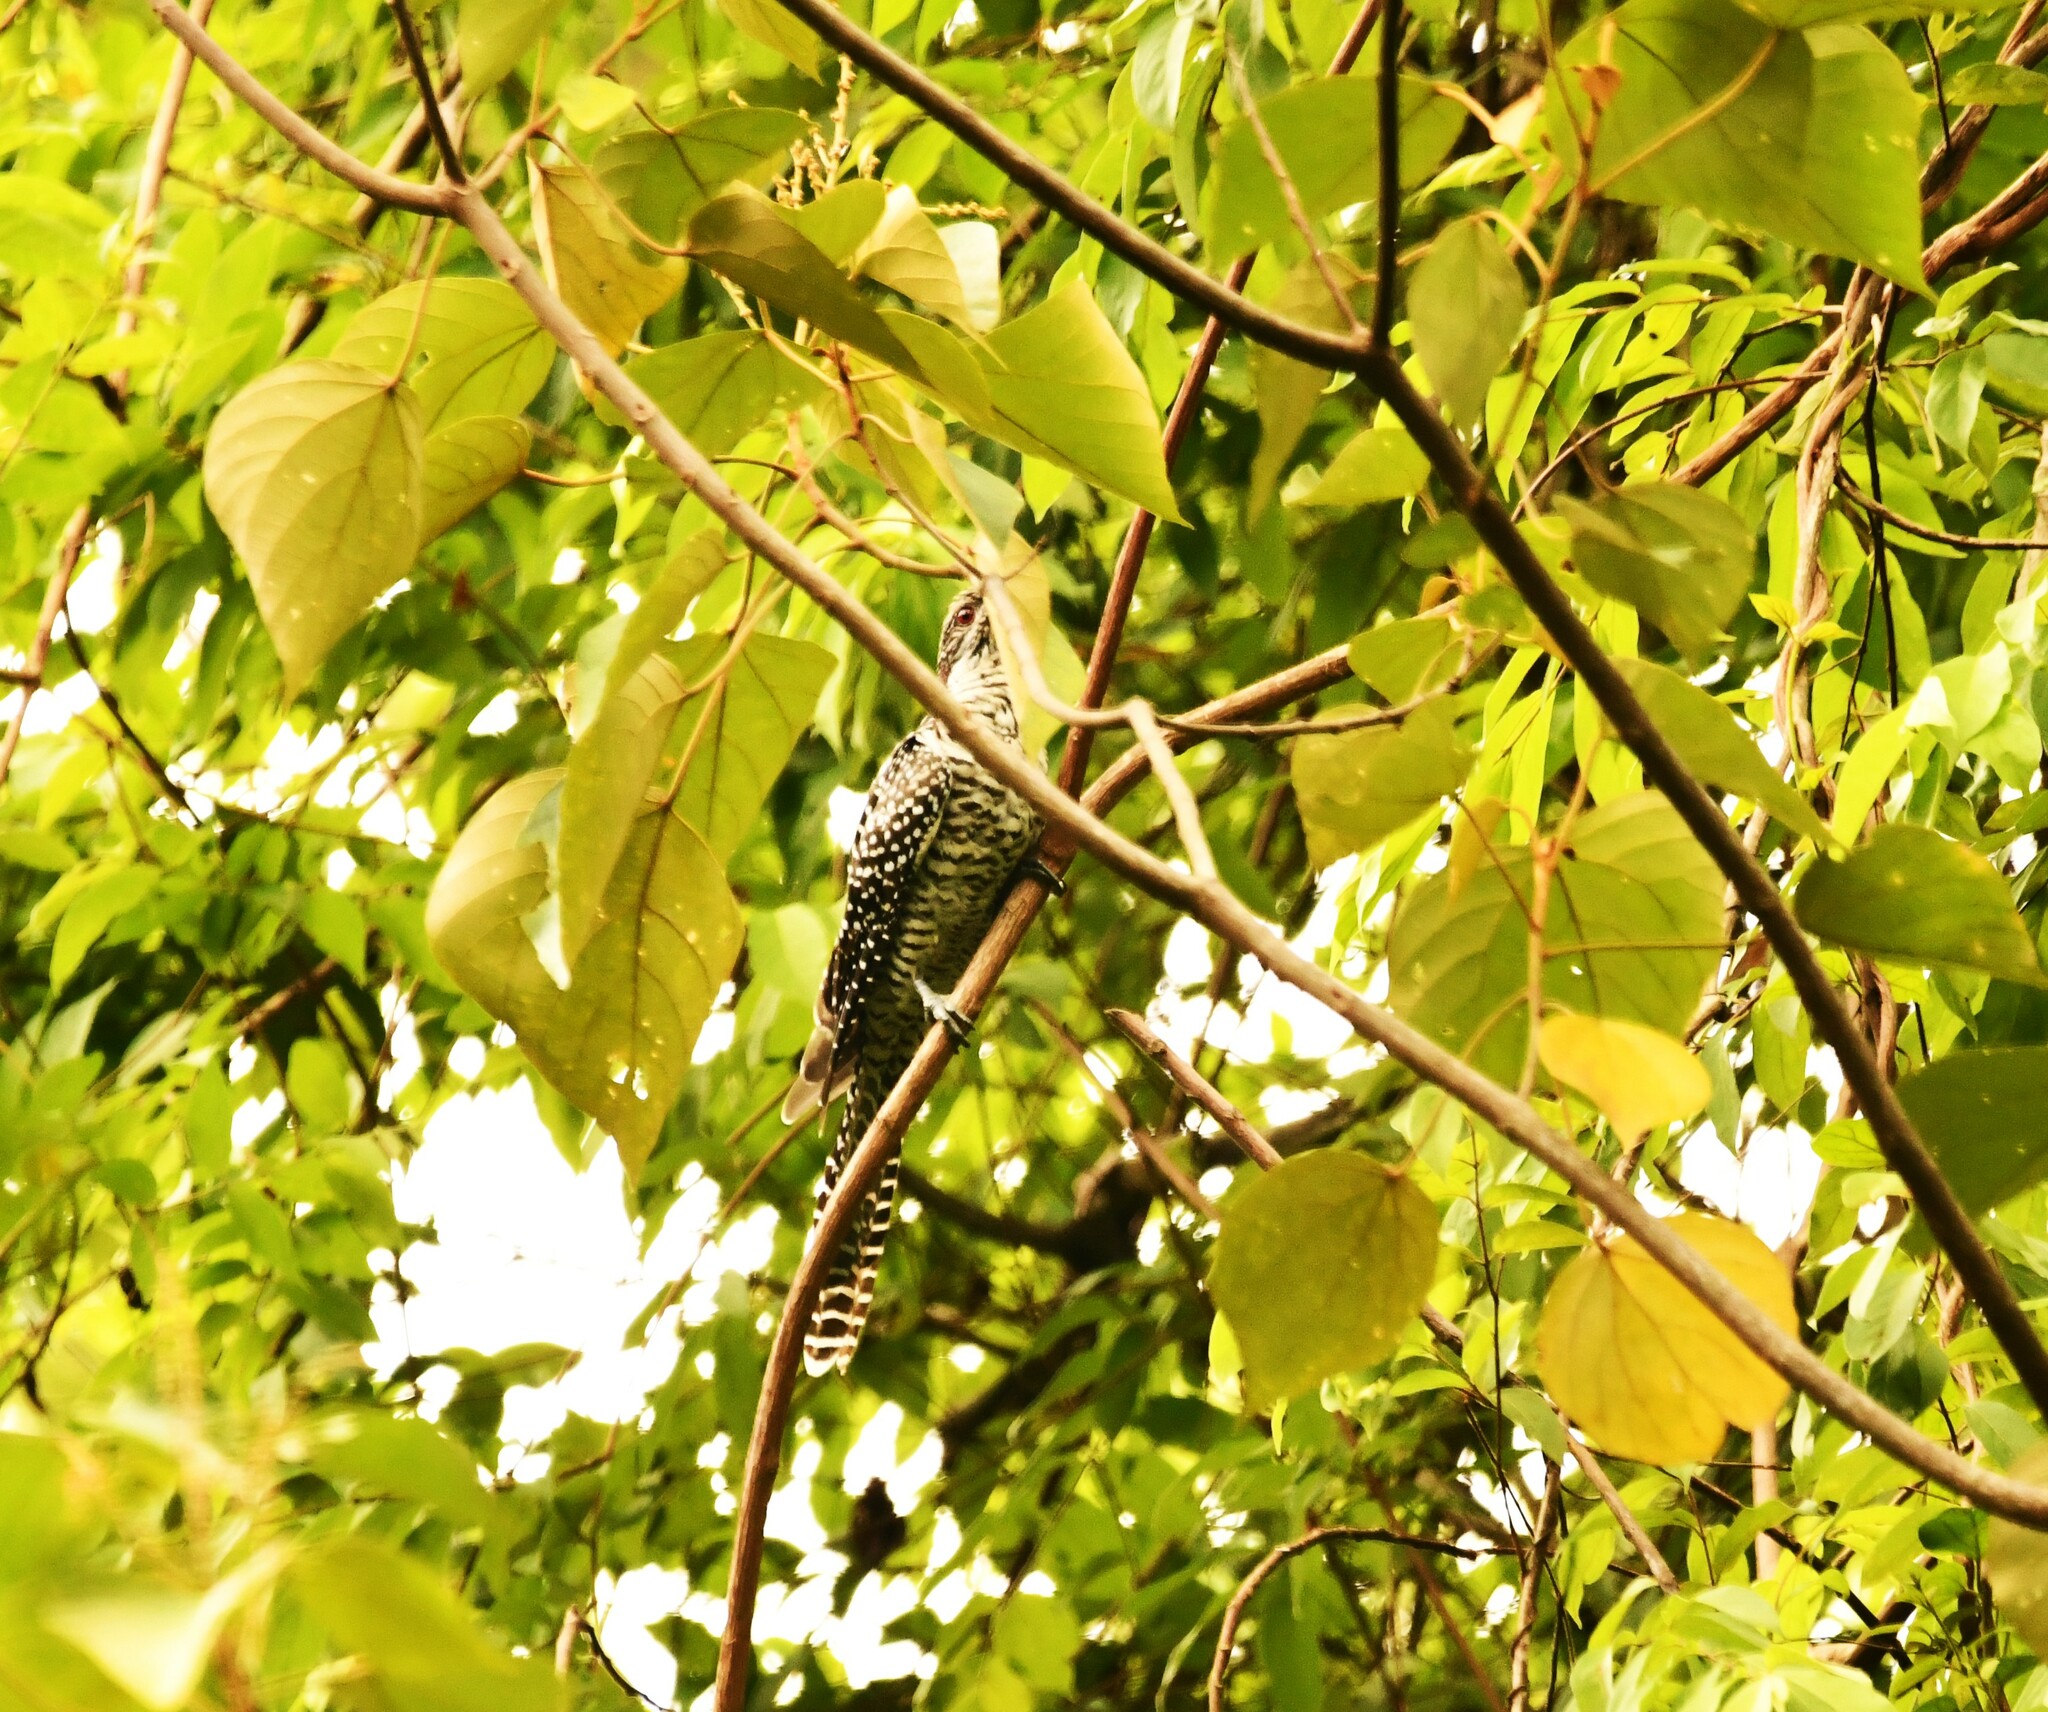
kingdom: Animalia
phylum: Chordata
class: Aves
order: Cuculiformes
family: Cuculidae
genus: Eudynamys
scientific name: Eudynamys scolopaceus
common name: Asian koel
